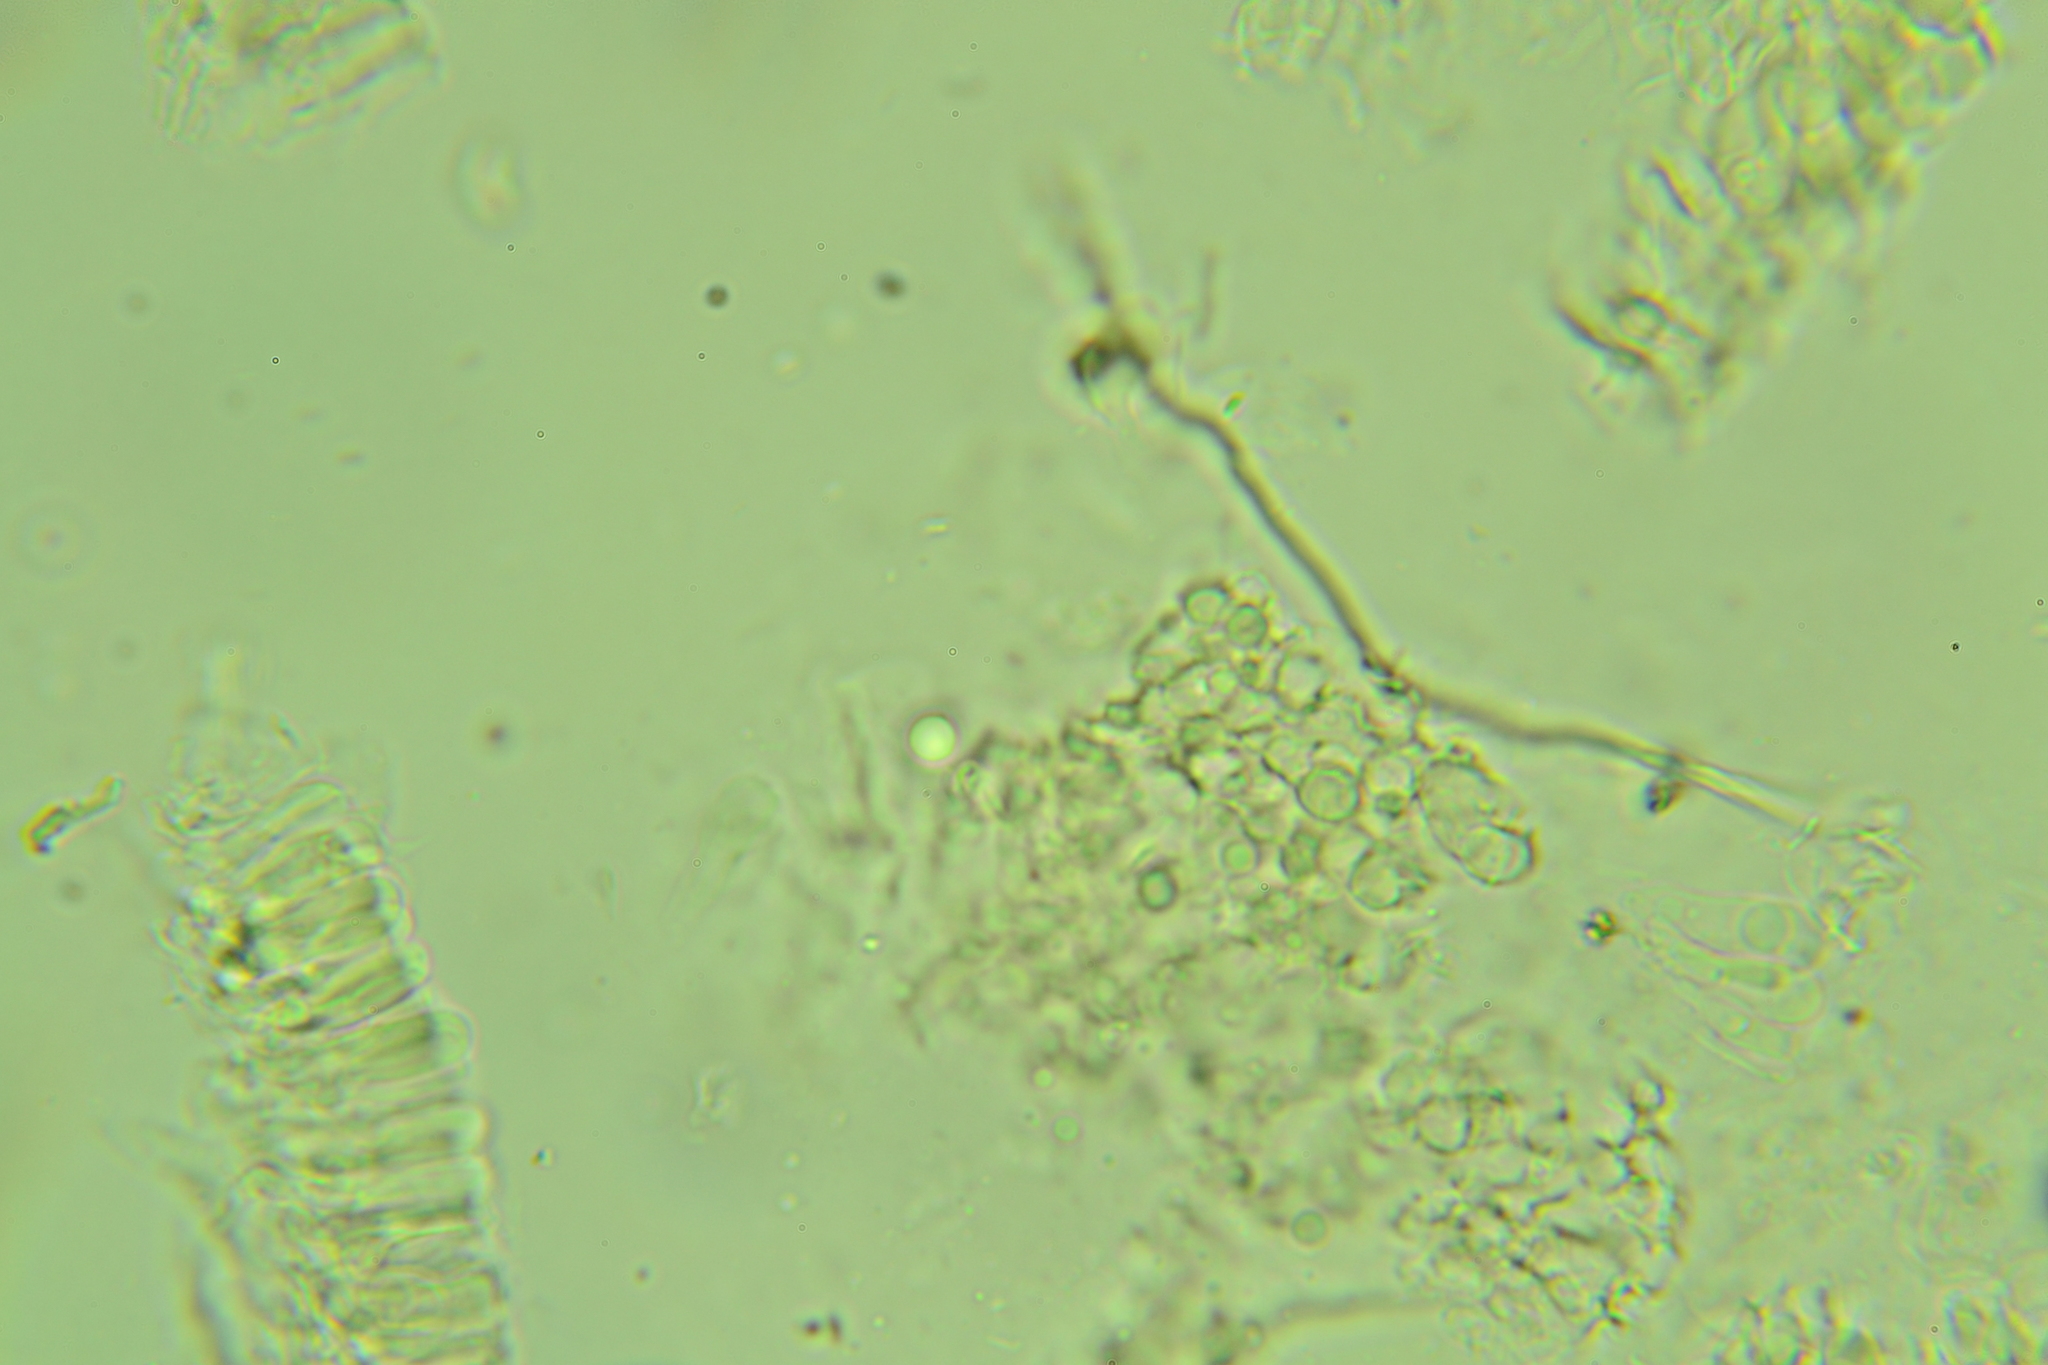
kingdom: Fungi
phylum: Basidiomycota
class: Agaricomycetes
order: Agaricales
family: Marasmiaceae
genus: Rectipilus
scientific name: Rectipilus davidii
